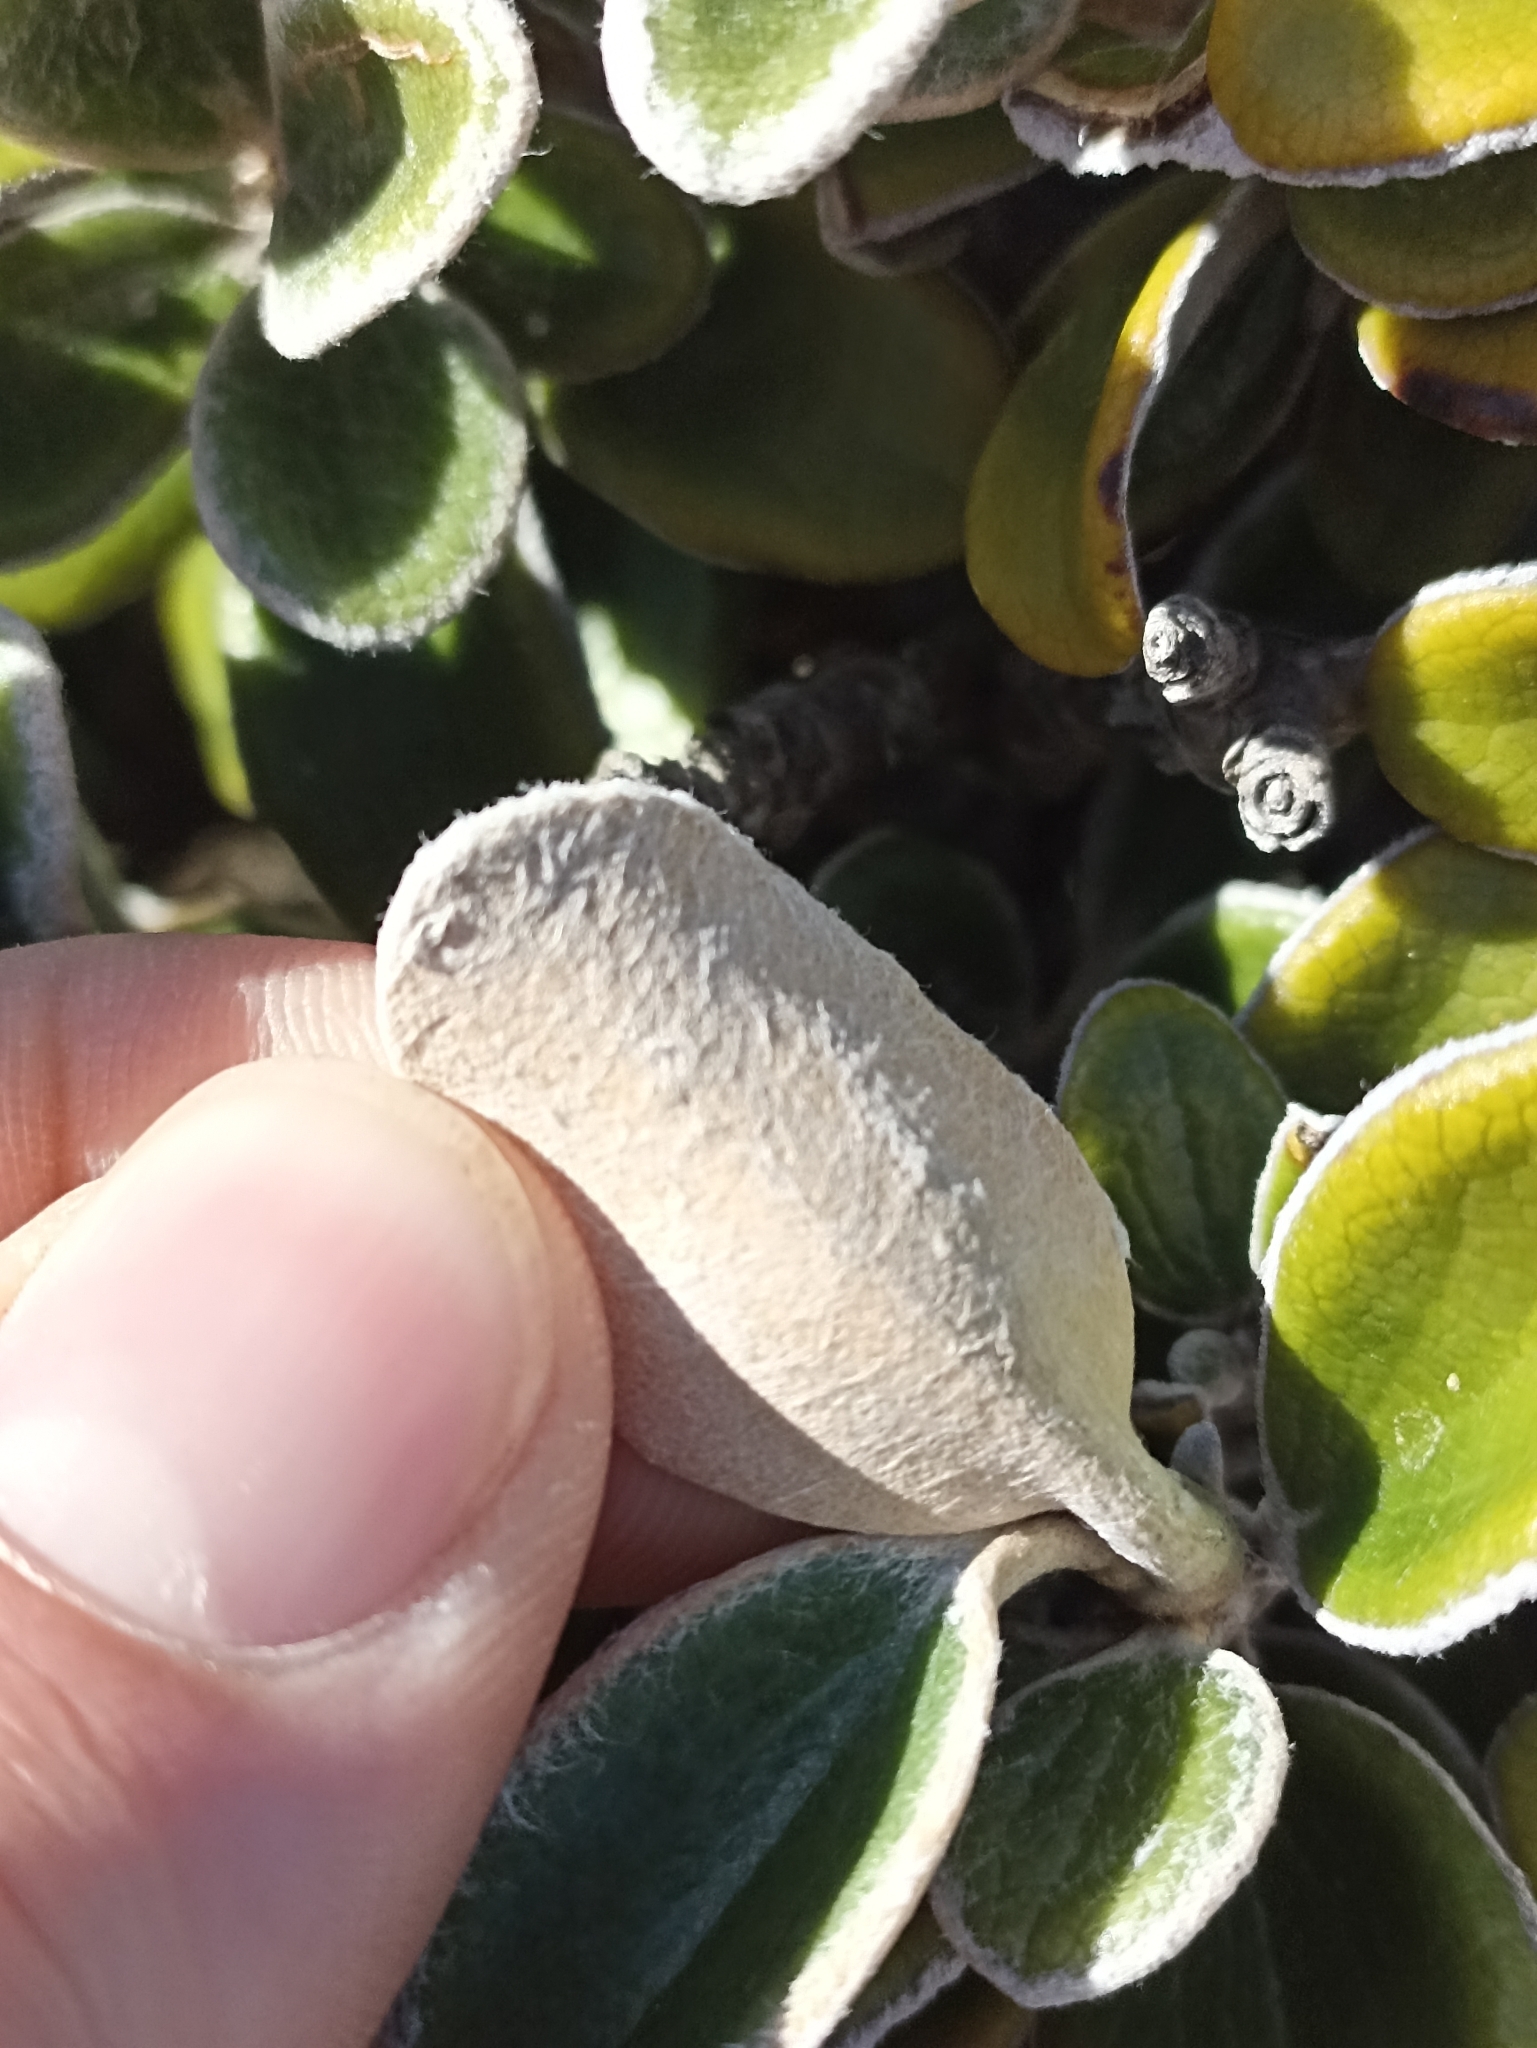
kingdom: Plantae
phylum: Tracheophyta
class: Magnoliopsida
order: Asterales
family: Asteraceae
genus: Brachyglottis
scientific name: Brachyglottis bidwillii
